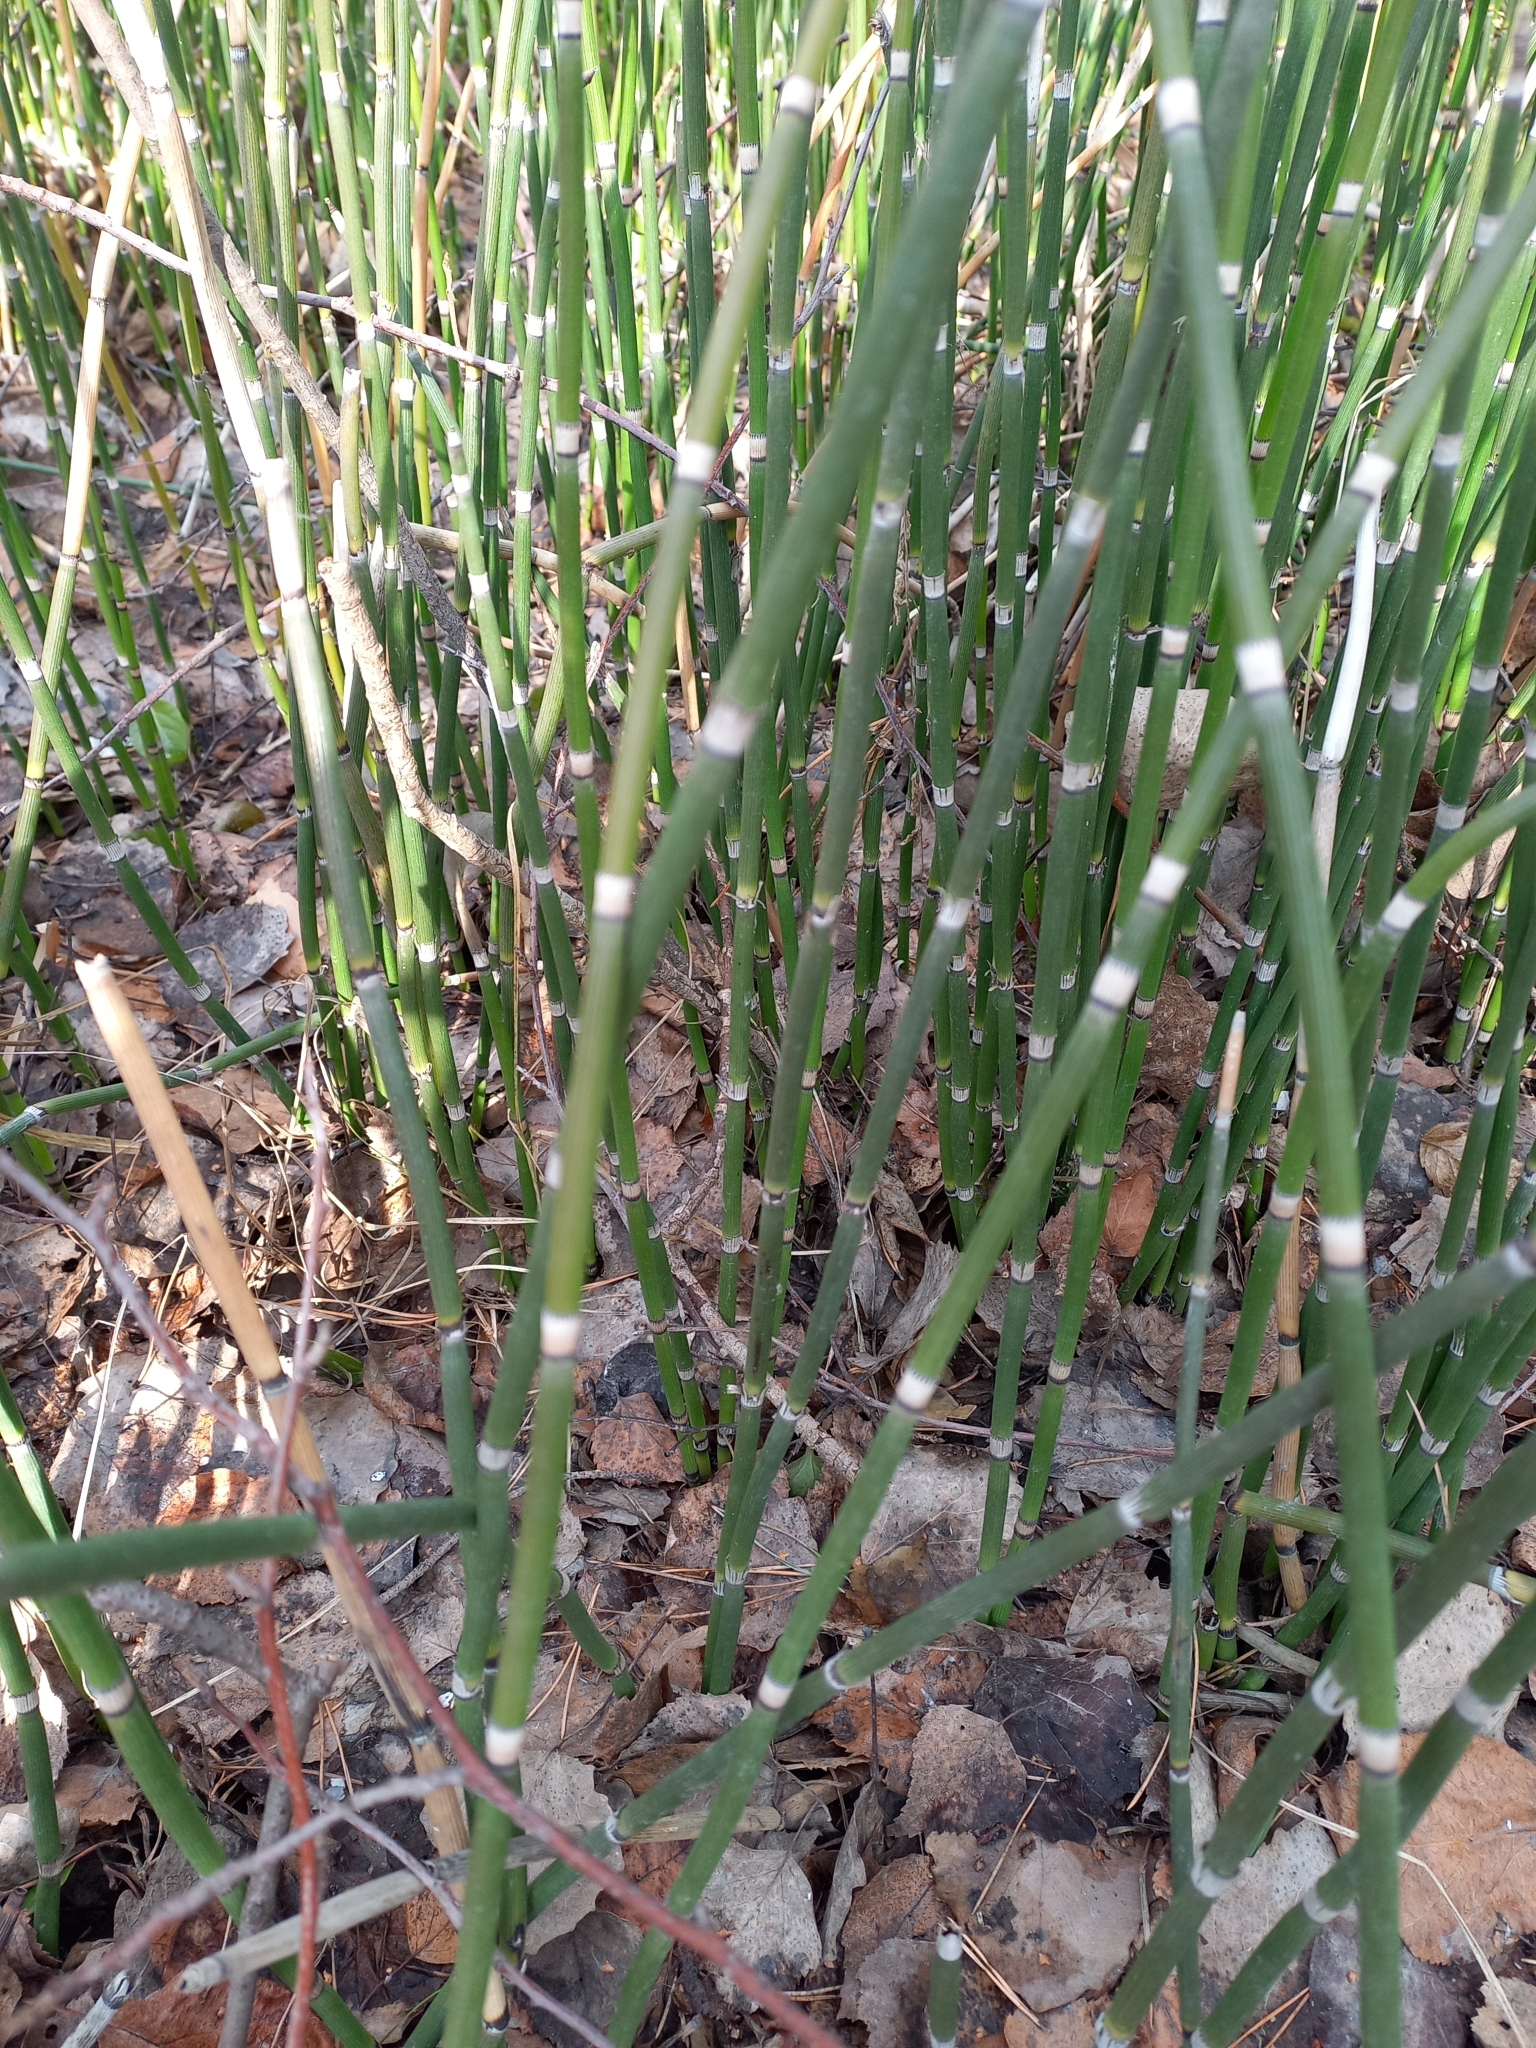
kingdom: Plantae
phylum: Tracheophyta
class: Polypodiopsida
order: Equisetales
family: Equisetaceae
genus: Equisetum
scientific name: Equisetum hyemale
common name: Rough horsetail
